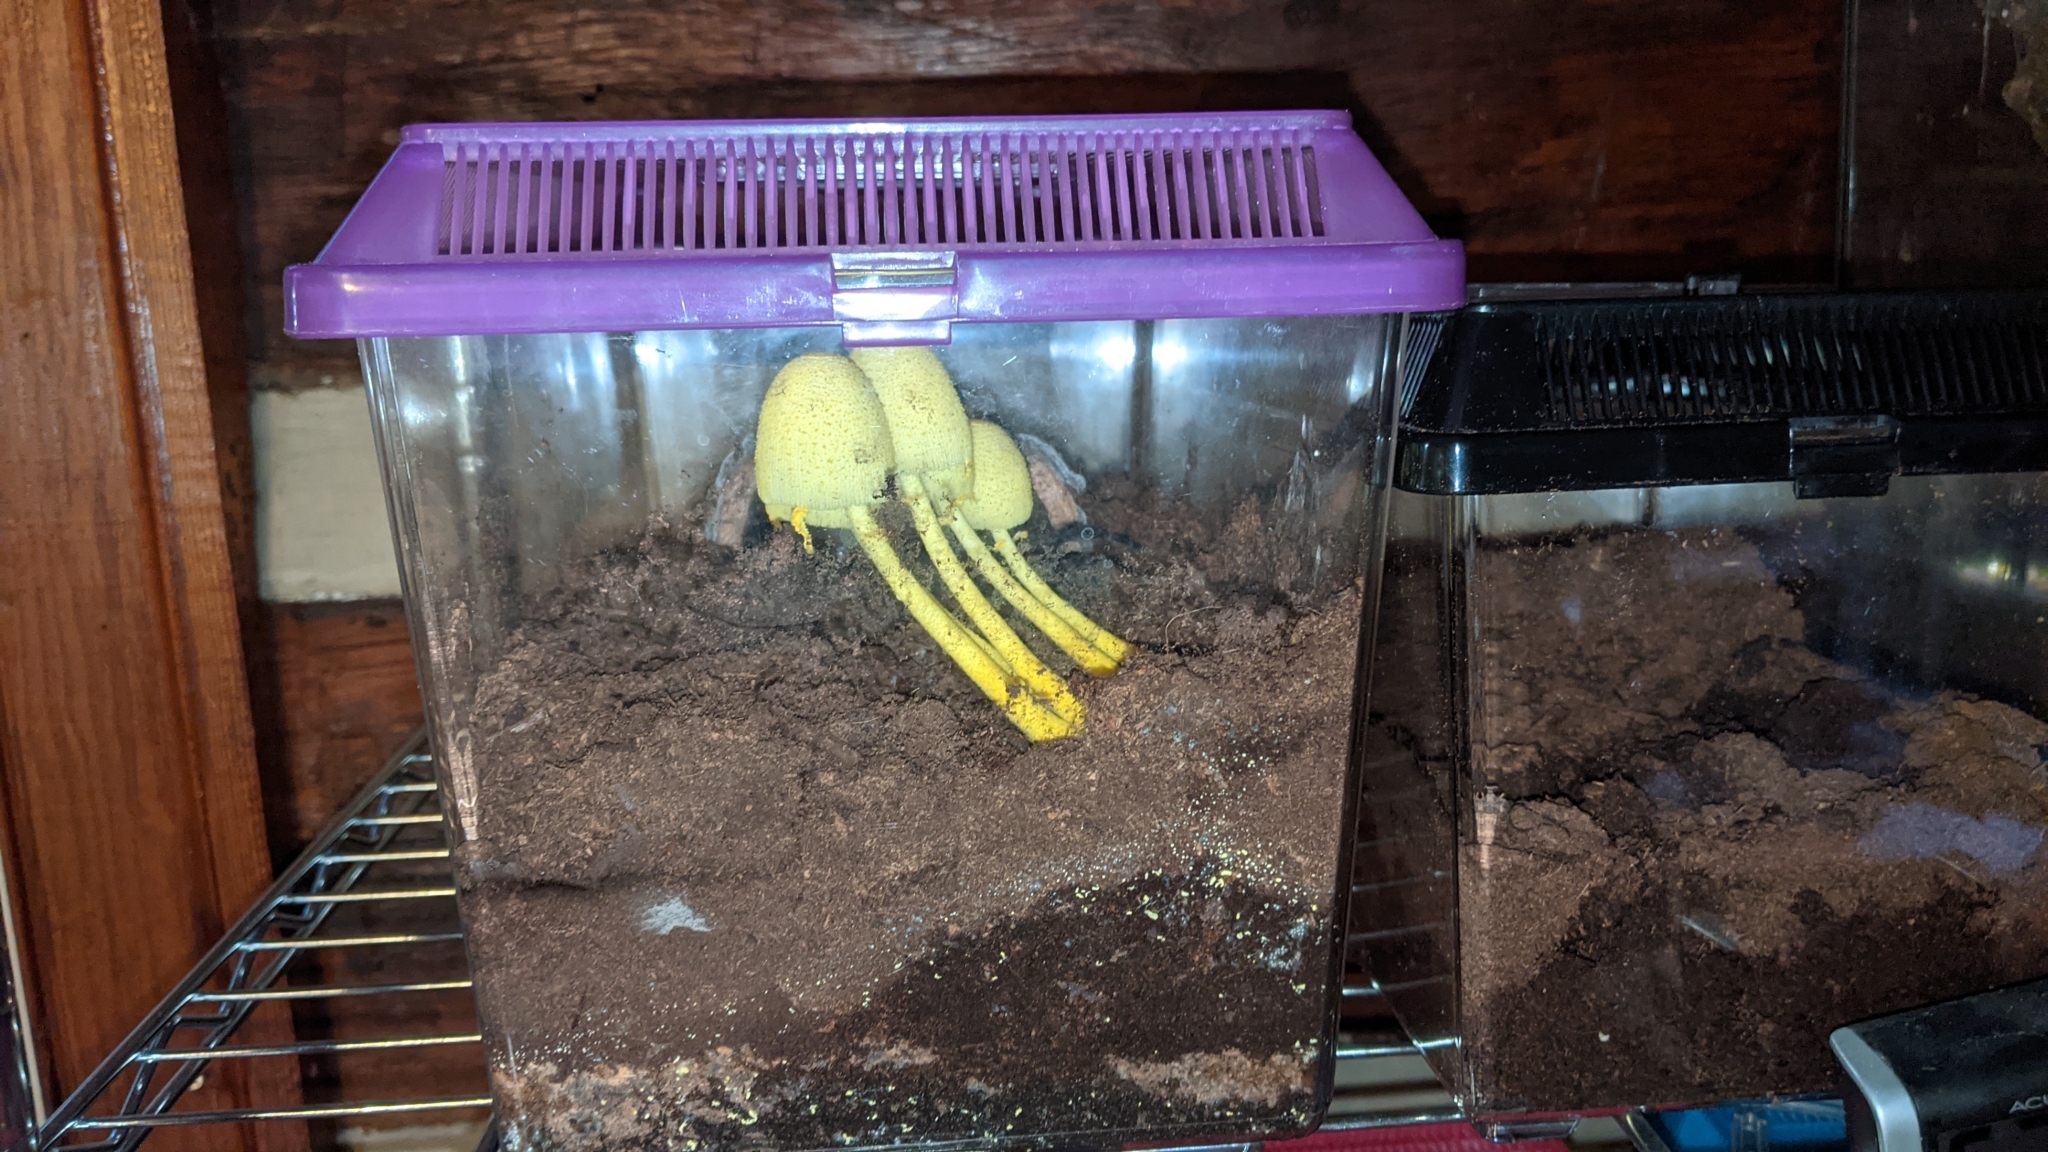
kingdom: Fungi
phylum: Basidiomycota
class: Agaricomycetes
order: Agaricales
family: Agaricaceae
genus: Leucocoprinus
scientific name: Leucocoprinus birnbaumii
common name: Plantpot dapperling
